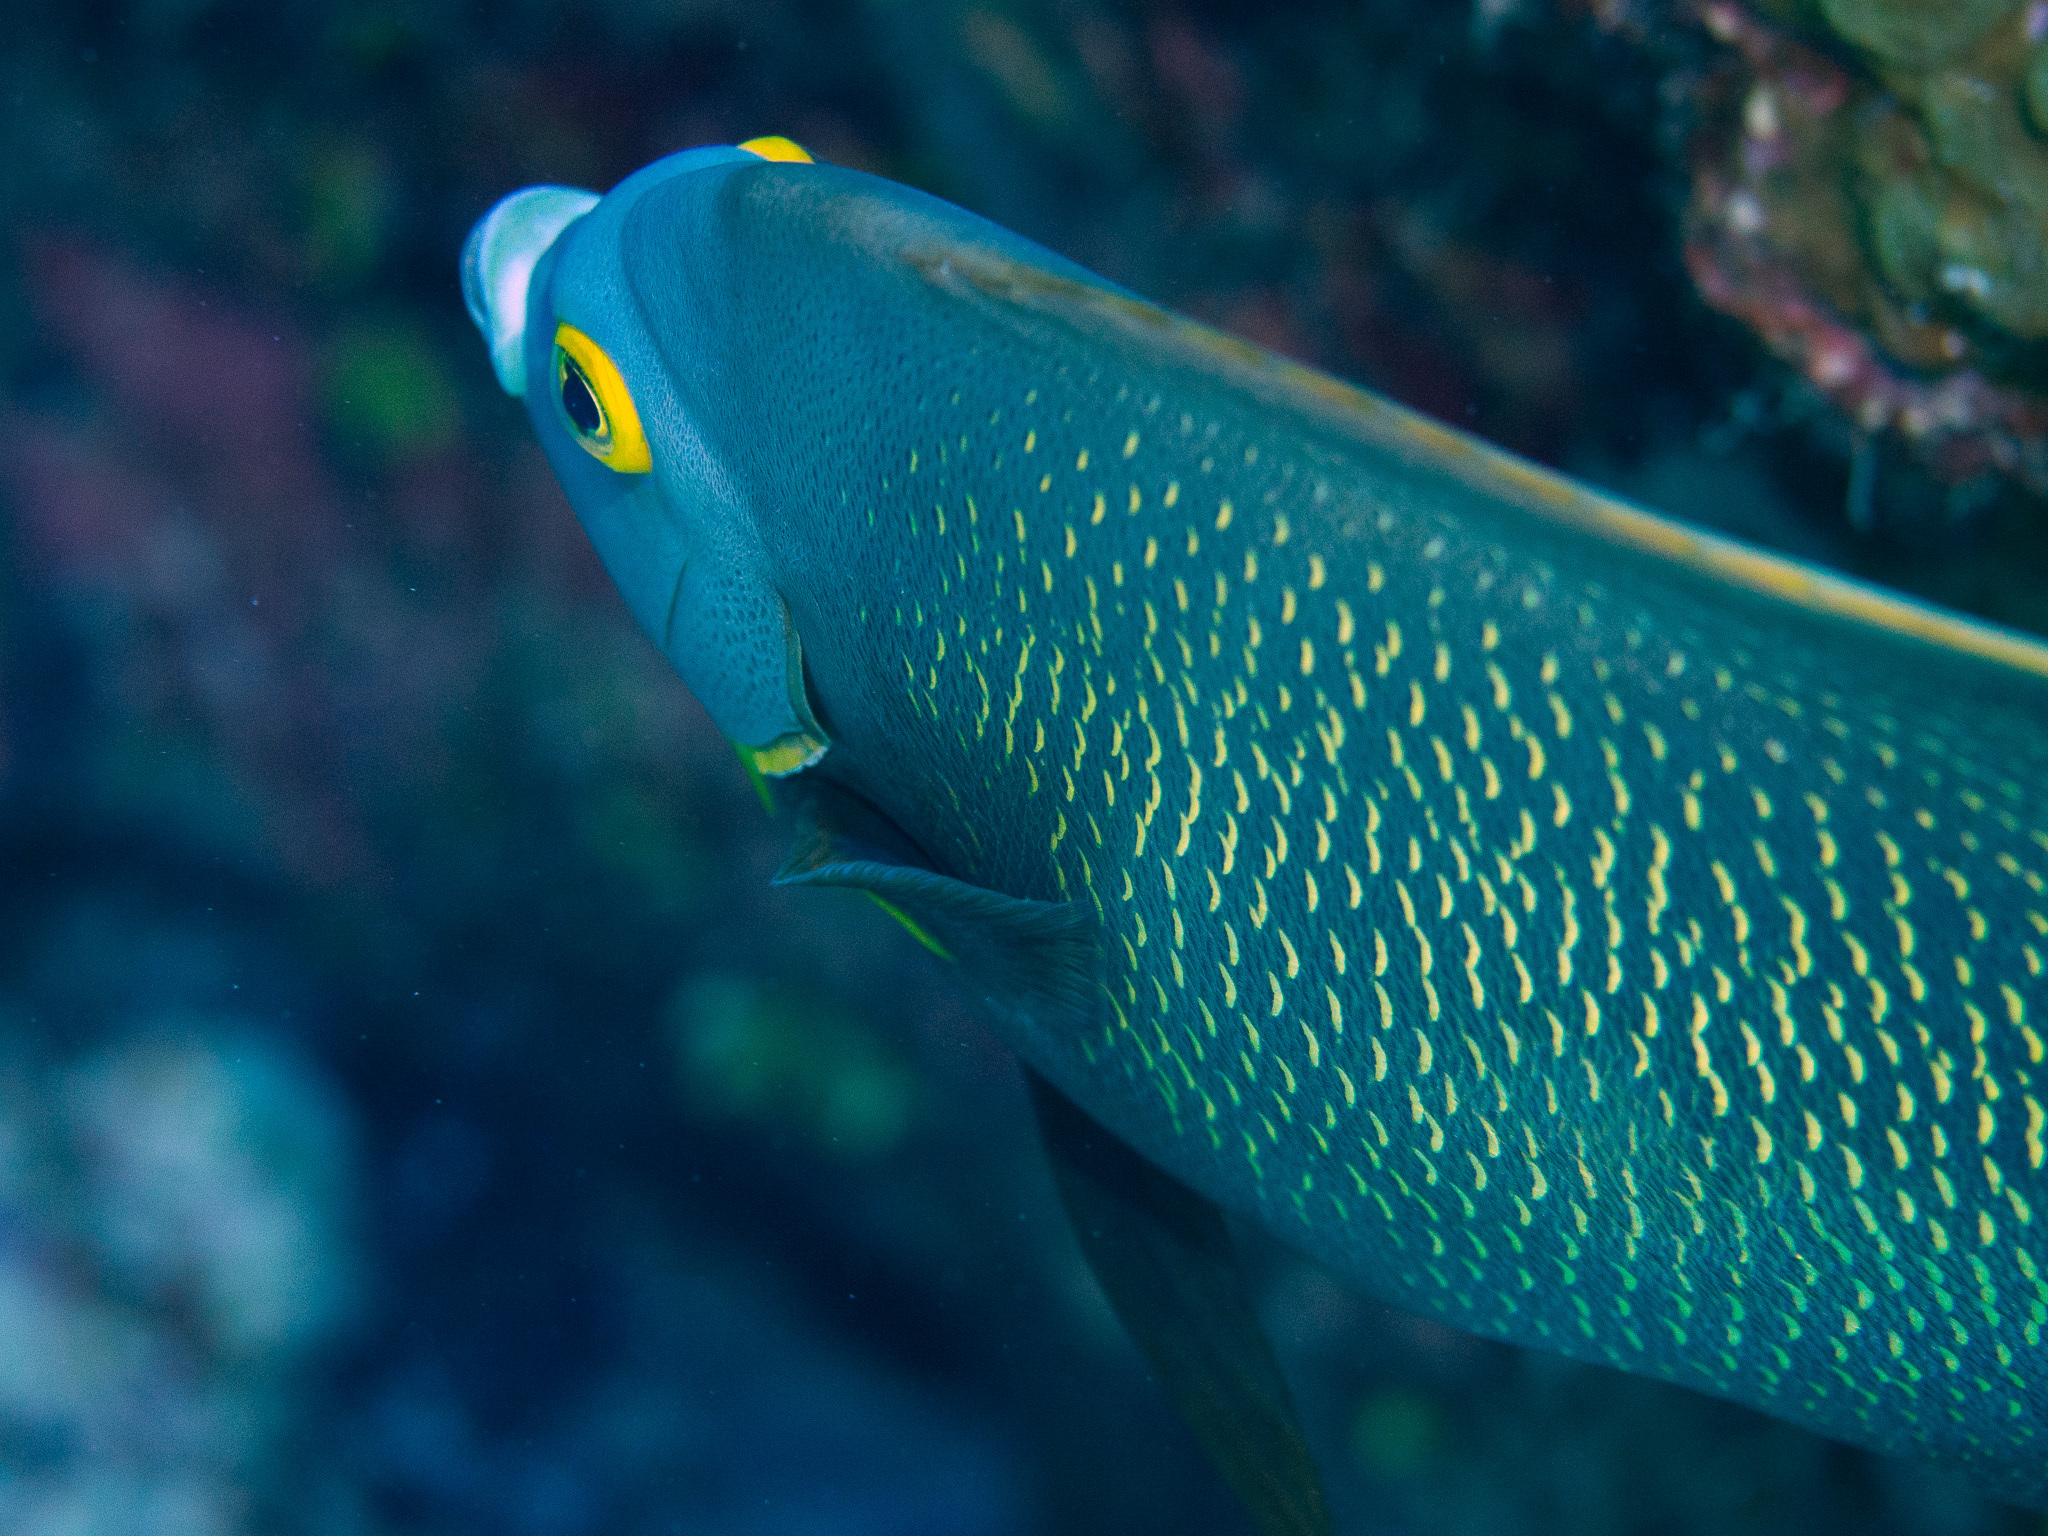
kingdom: Animalia
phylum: Chordata
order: Perciformes
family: Pomacanthidae
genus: Pomacanthus
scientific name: Pomacanthus paru
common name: French angelfish
